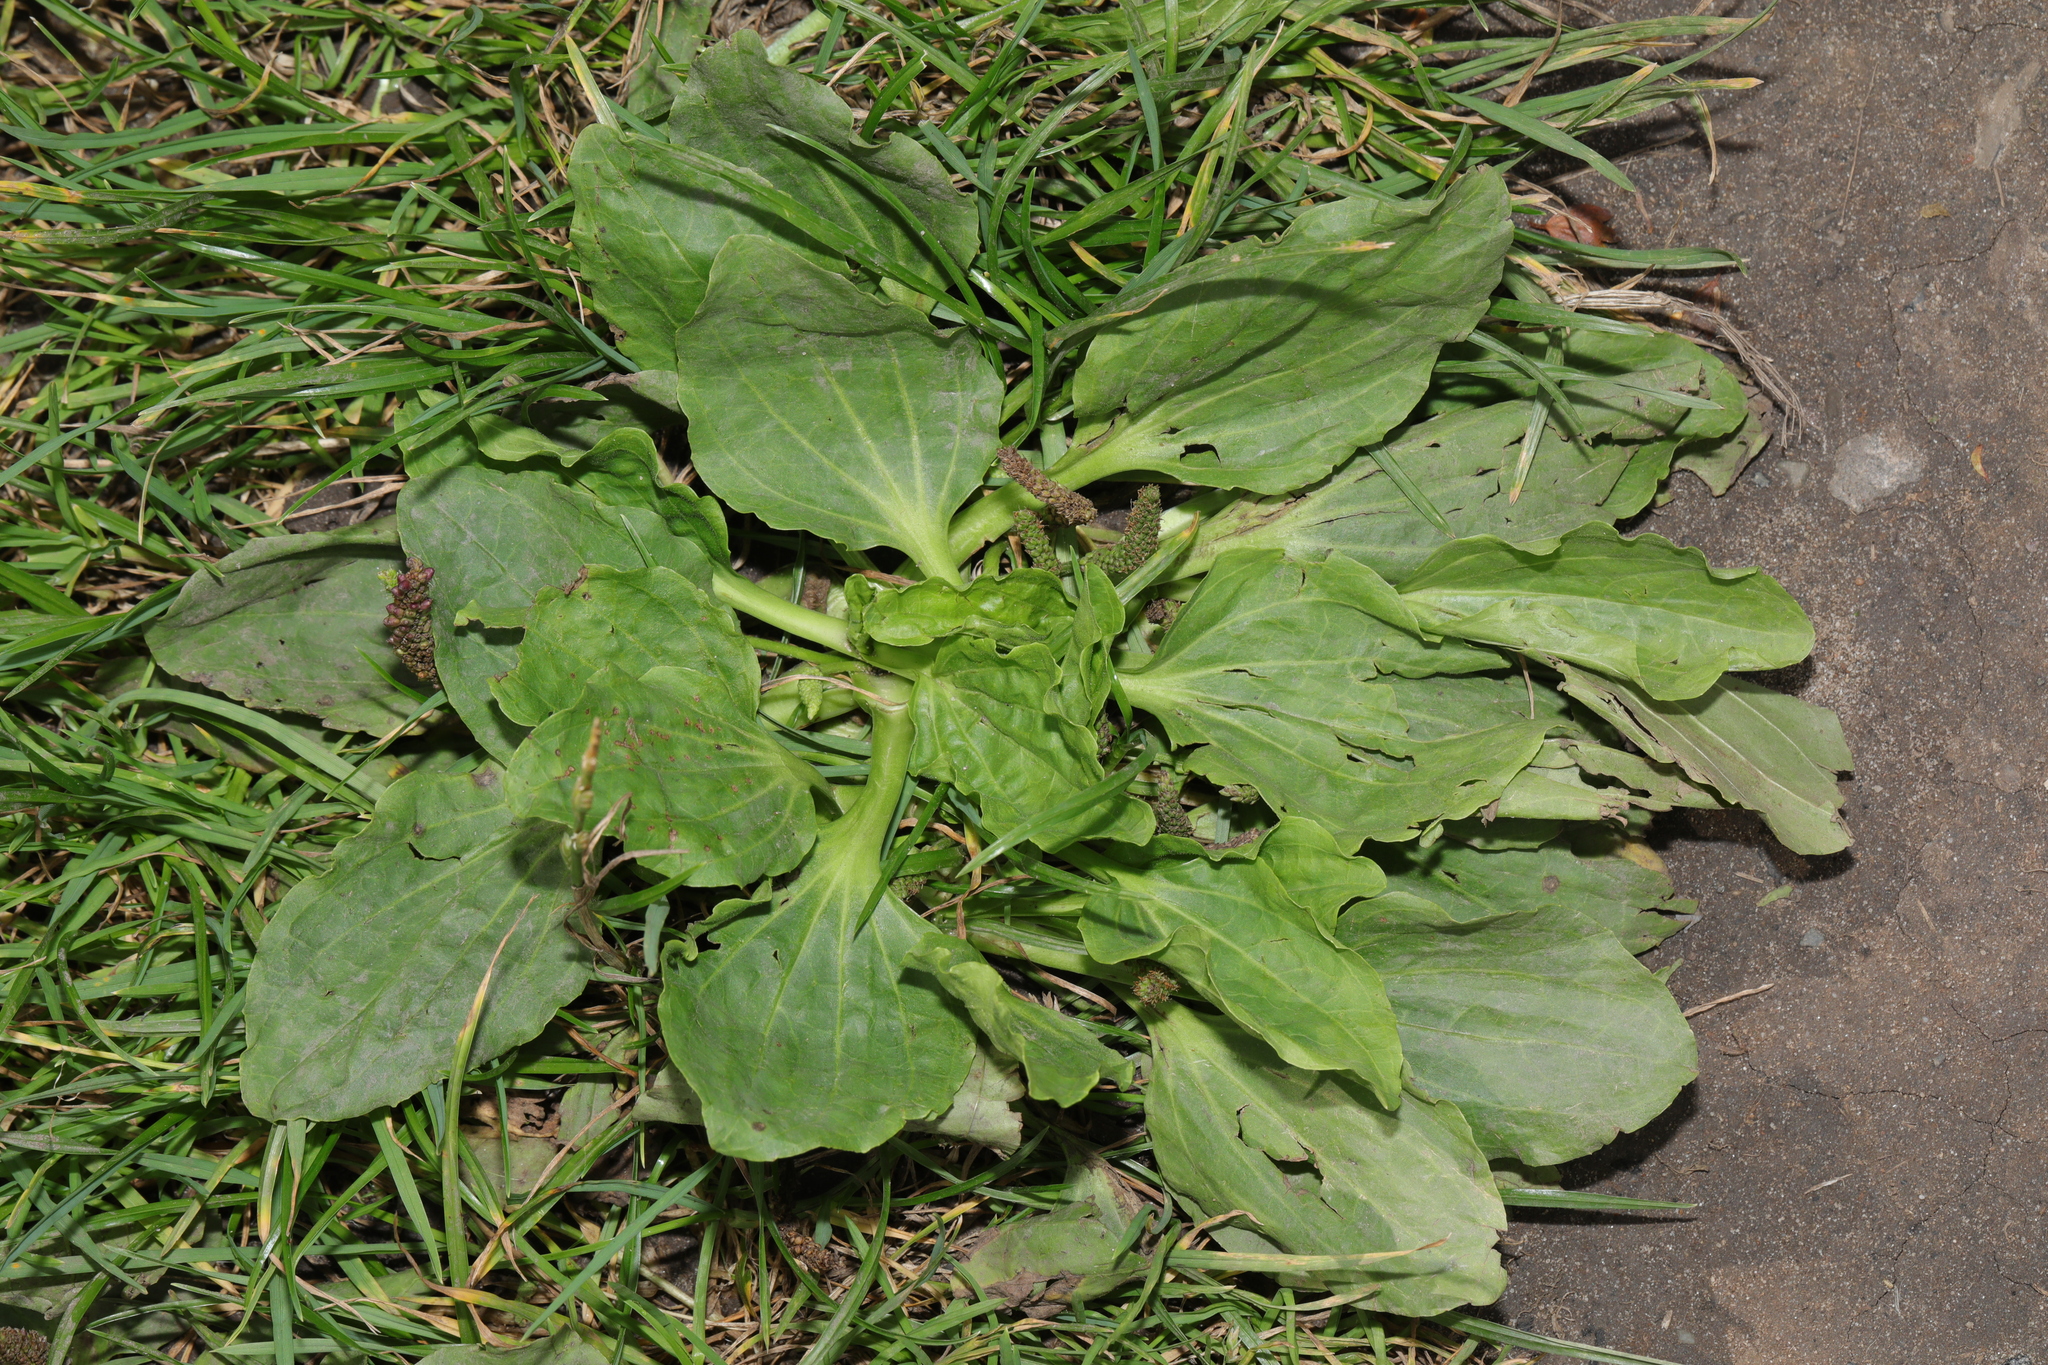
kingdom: Plantae
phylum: Tracheophyta
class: Magnoliopsida
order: Lamiales
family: Plantaginaceae
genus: Plantago
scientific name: Plantago major
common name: Common plantain
